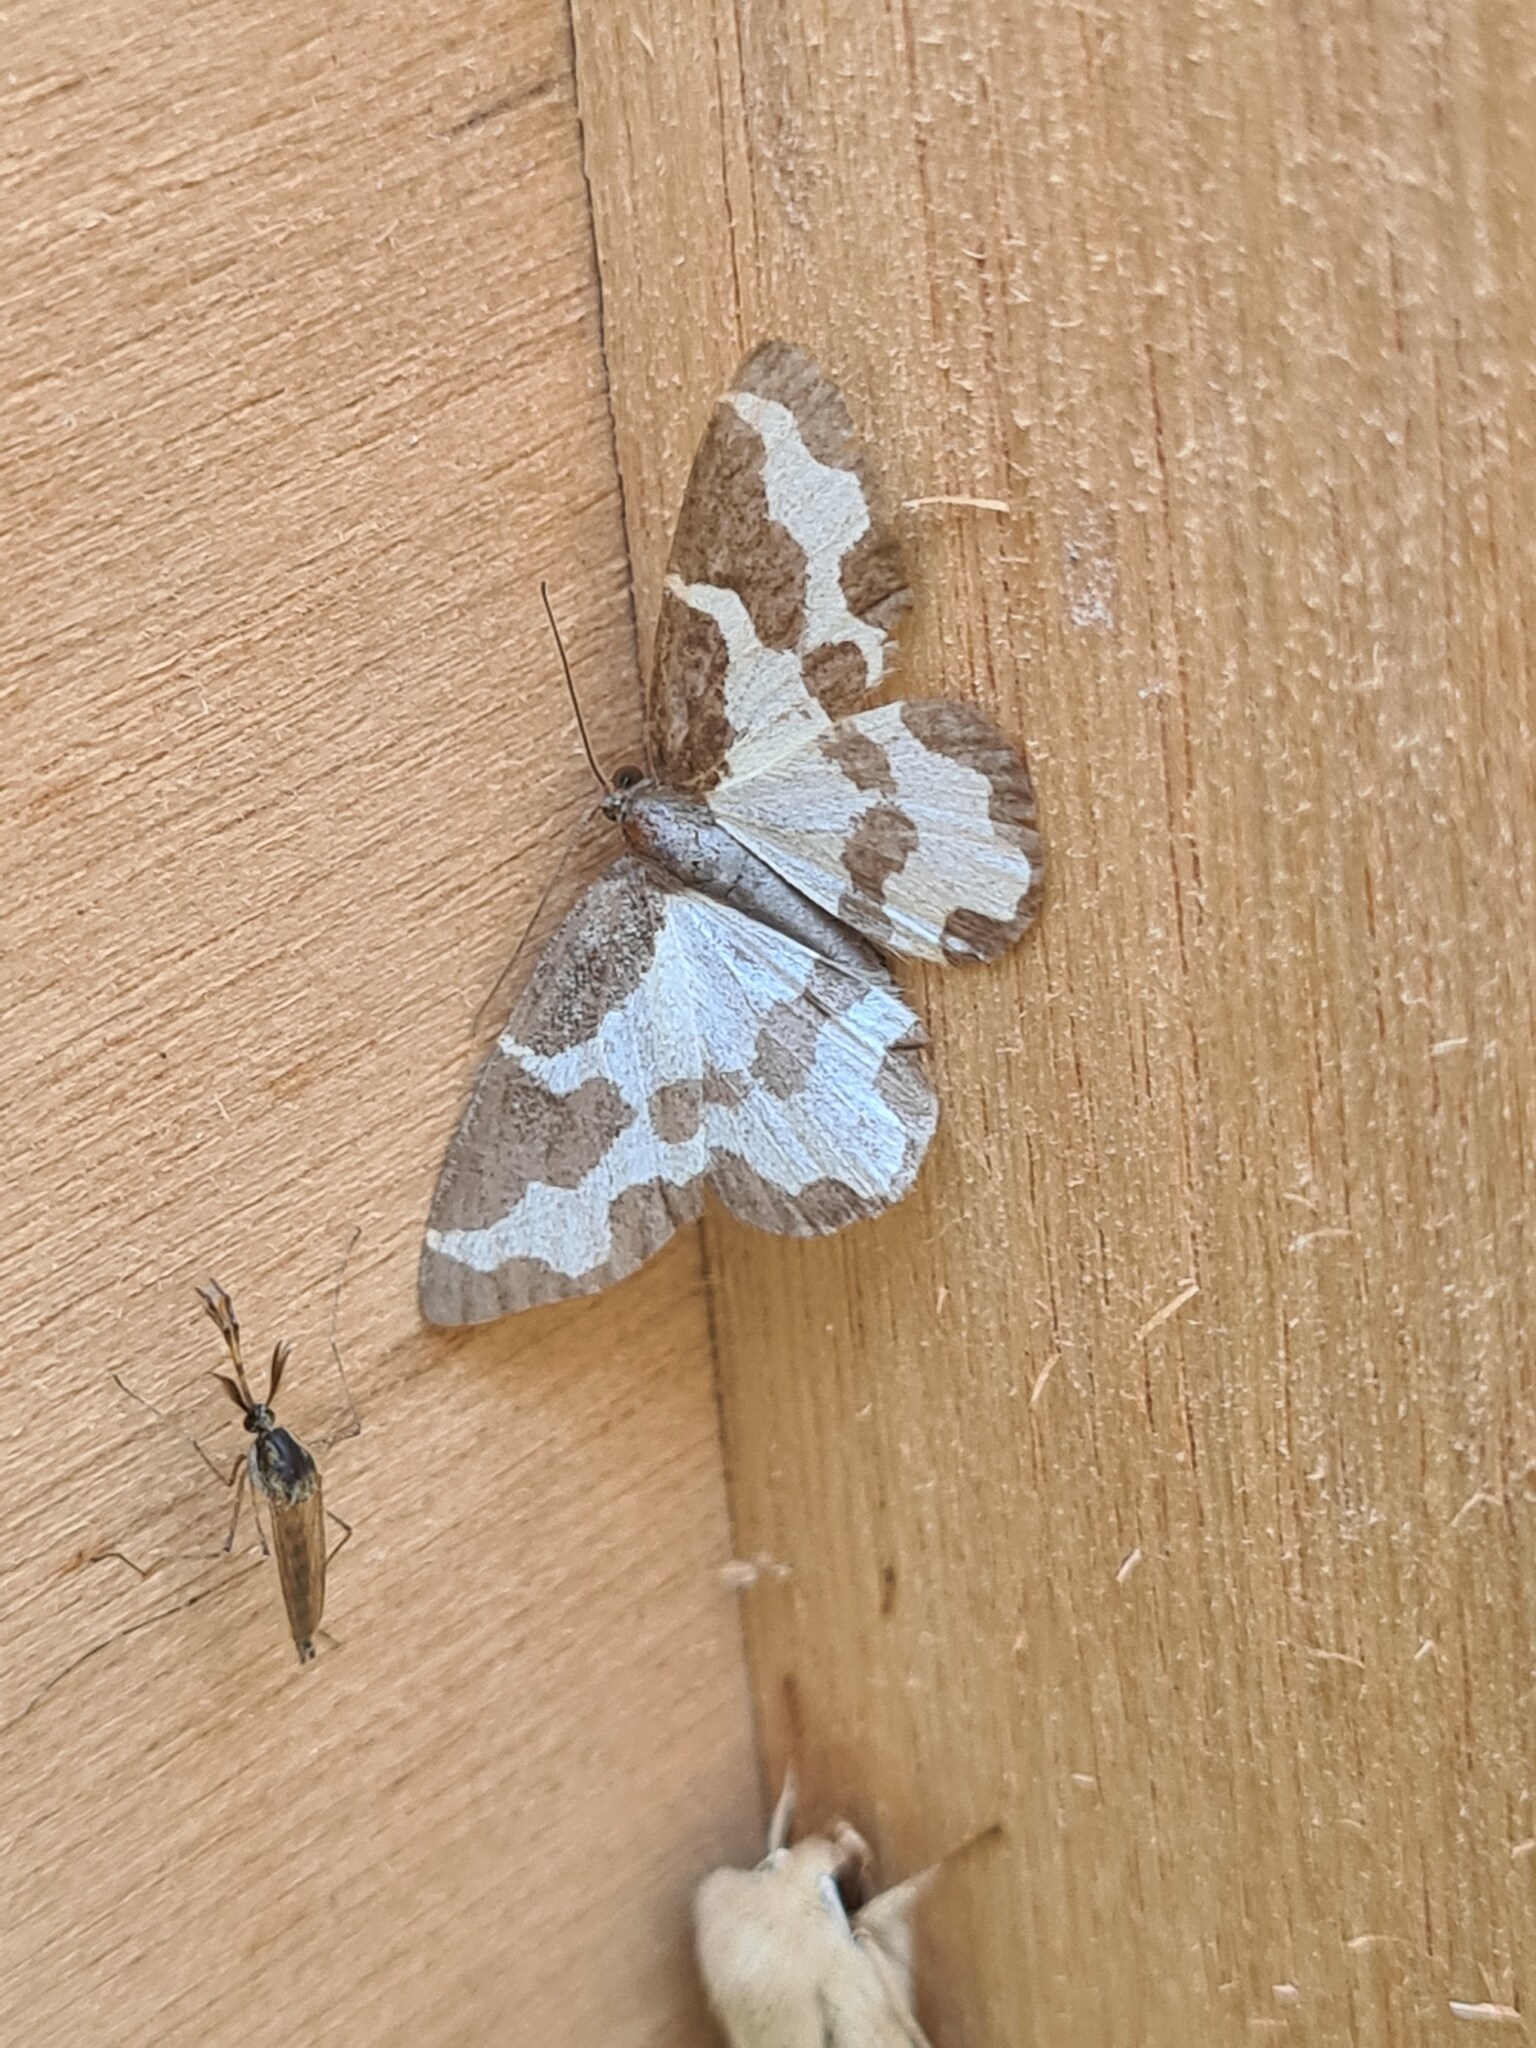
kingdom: Animalia
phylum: Arthropoda
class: Insecta
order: Lepidoptera
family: Geometridae
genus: Lomaspilis
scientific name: Lomaspilis marginata
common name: Clouded border
